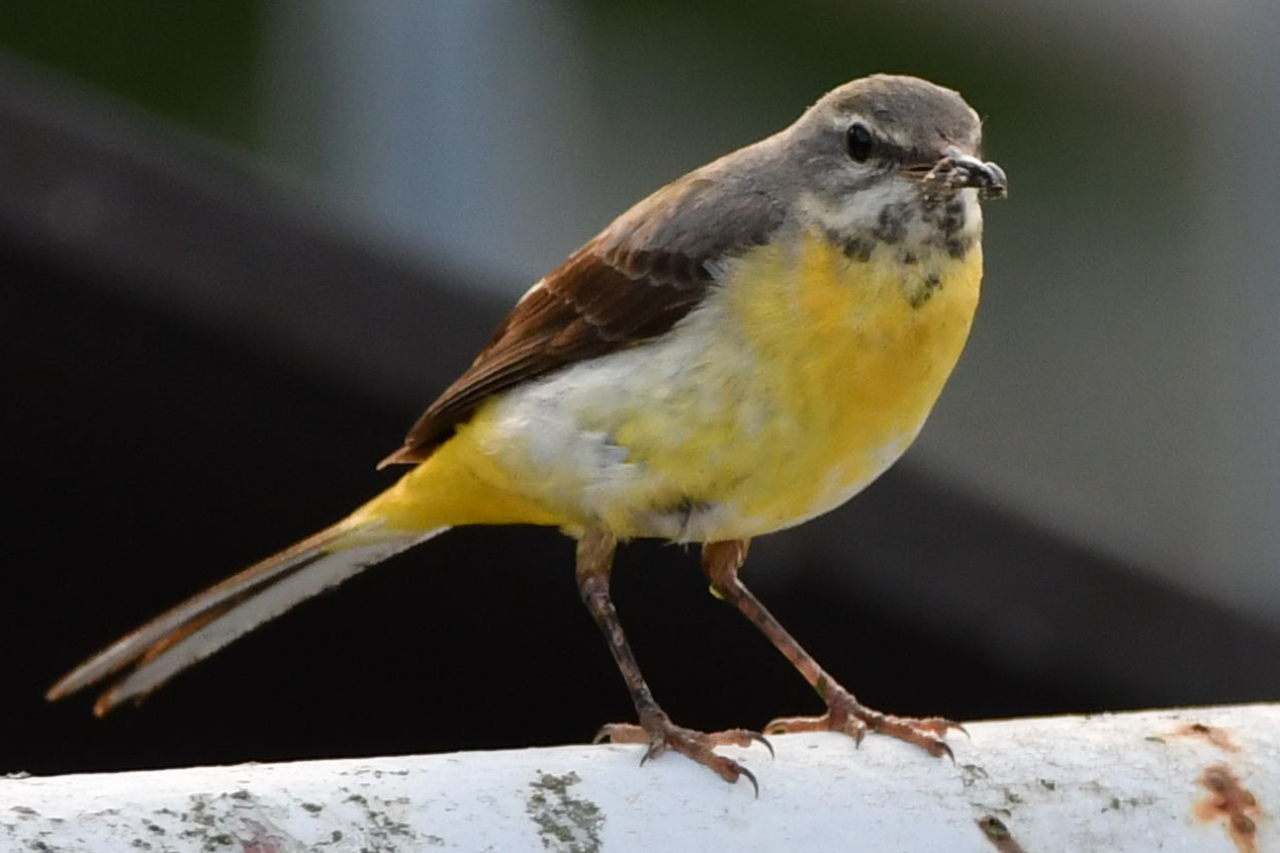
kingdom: Animalia
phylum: Chordata
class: Aves
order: Passeriformes
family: Motacillidae
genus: Motacilla
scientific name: Motacilla cinerea
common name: Grey wagtail
